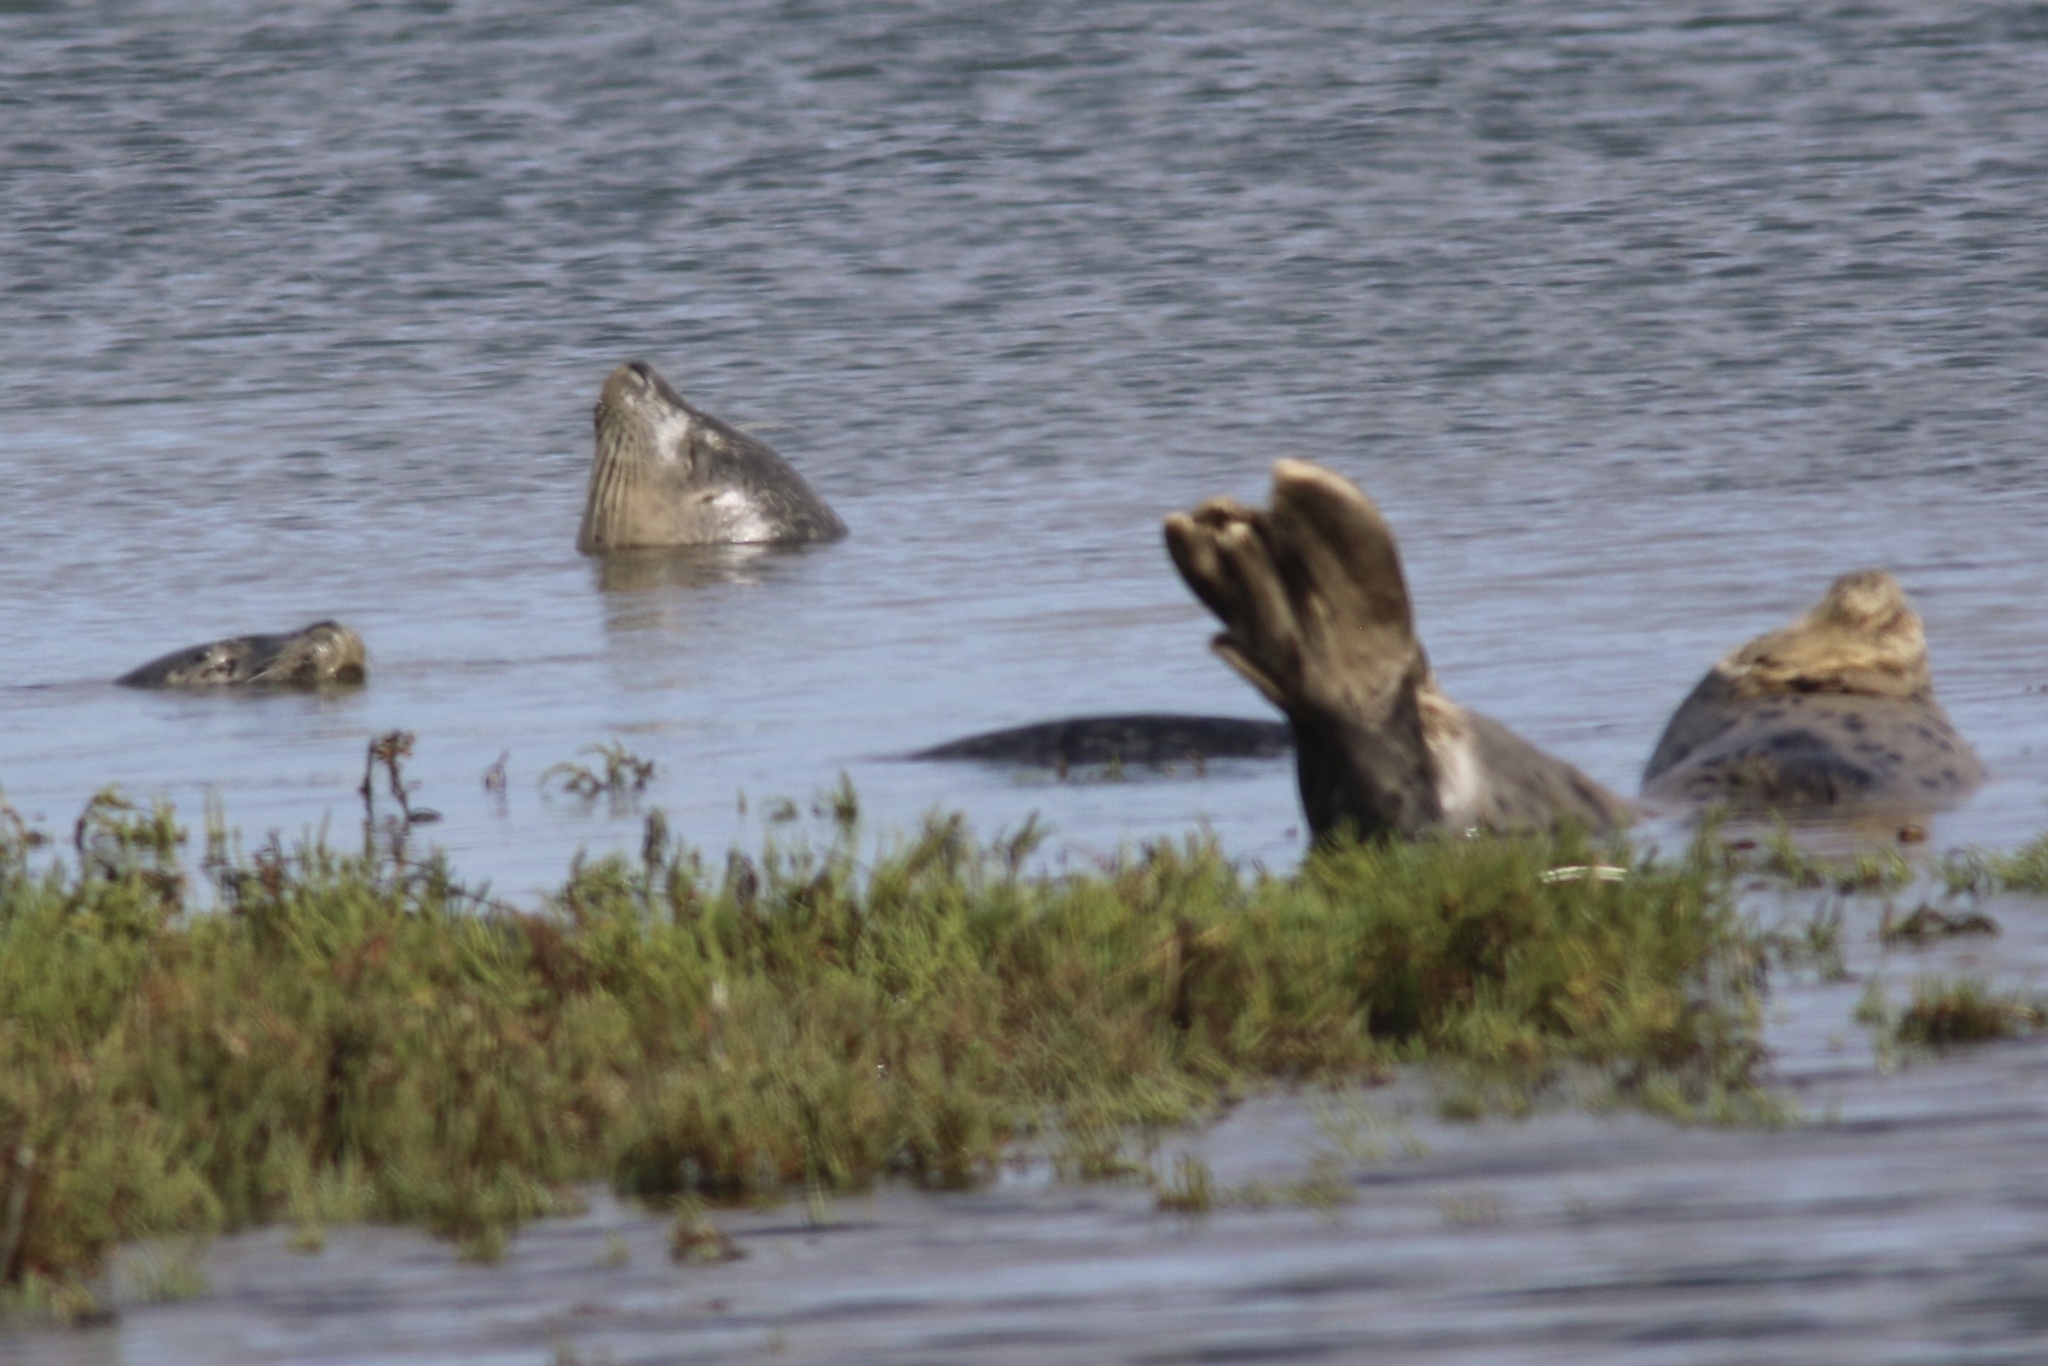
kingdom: Animalia
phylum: Chordata
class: Mammalia
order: Carnivora
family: Phocidae
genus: Phoca
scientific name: Phoca vitulina
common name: Harbor seal
